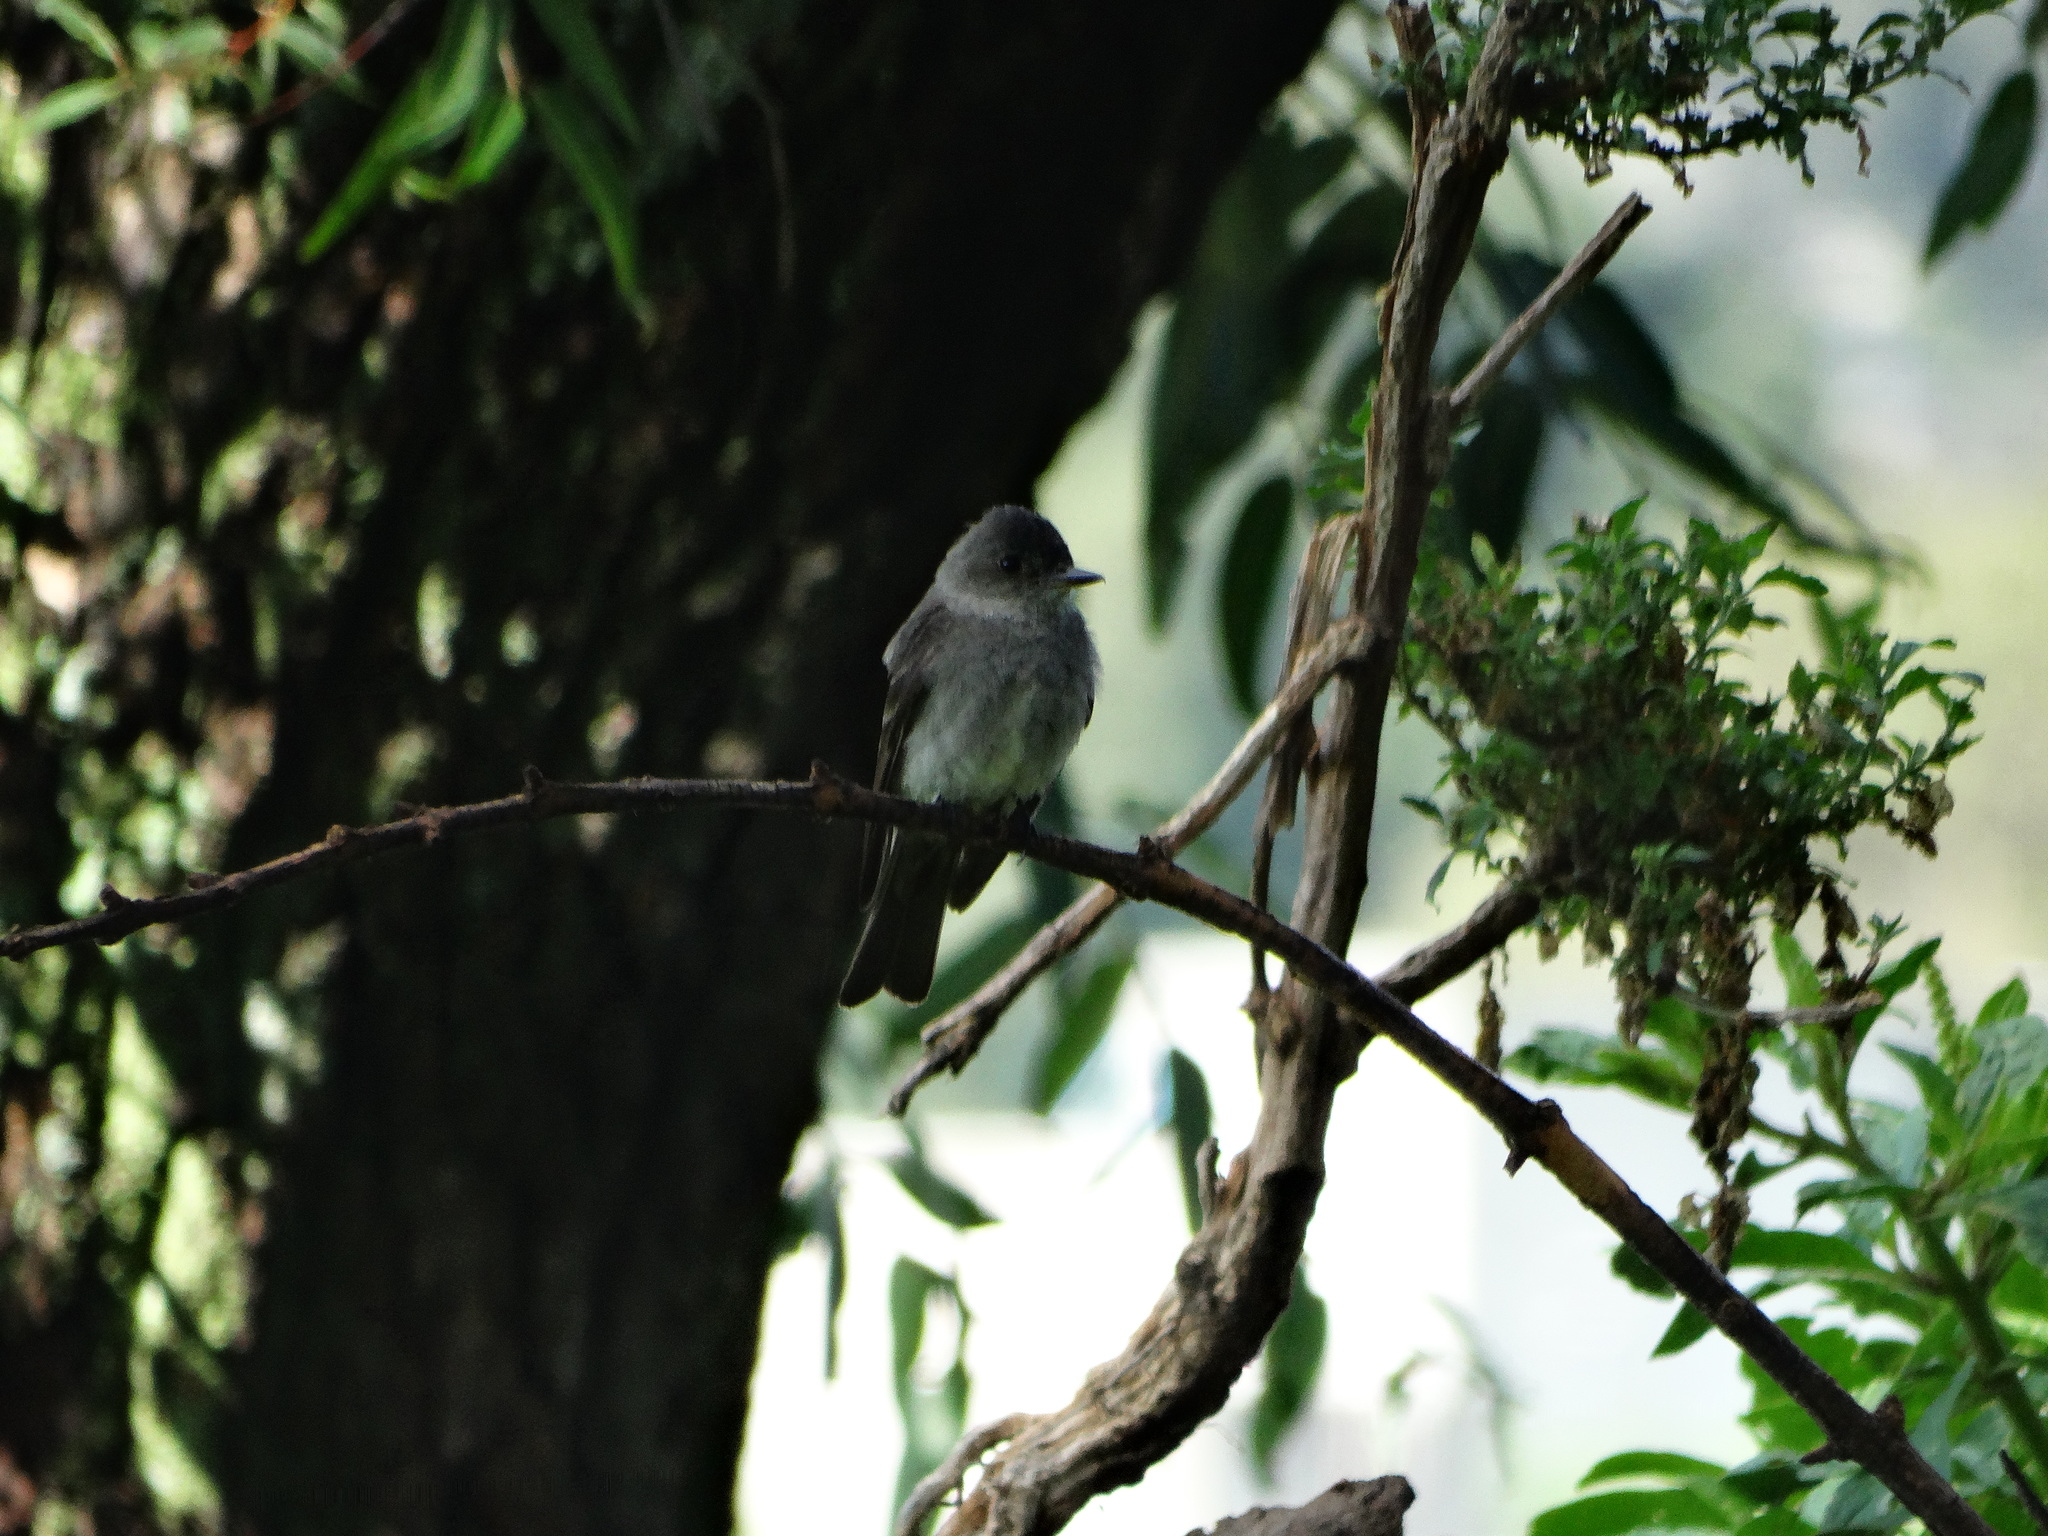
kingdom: Animalia
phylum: Chordata
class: Aves
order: Passeriformes
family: Tyrannidae
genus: Sayornis
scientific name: Sayornis nigricans
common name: Black phoebe
